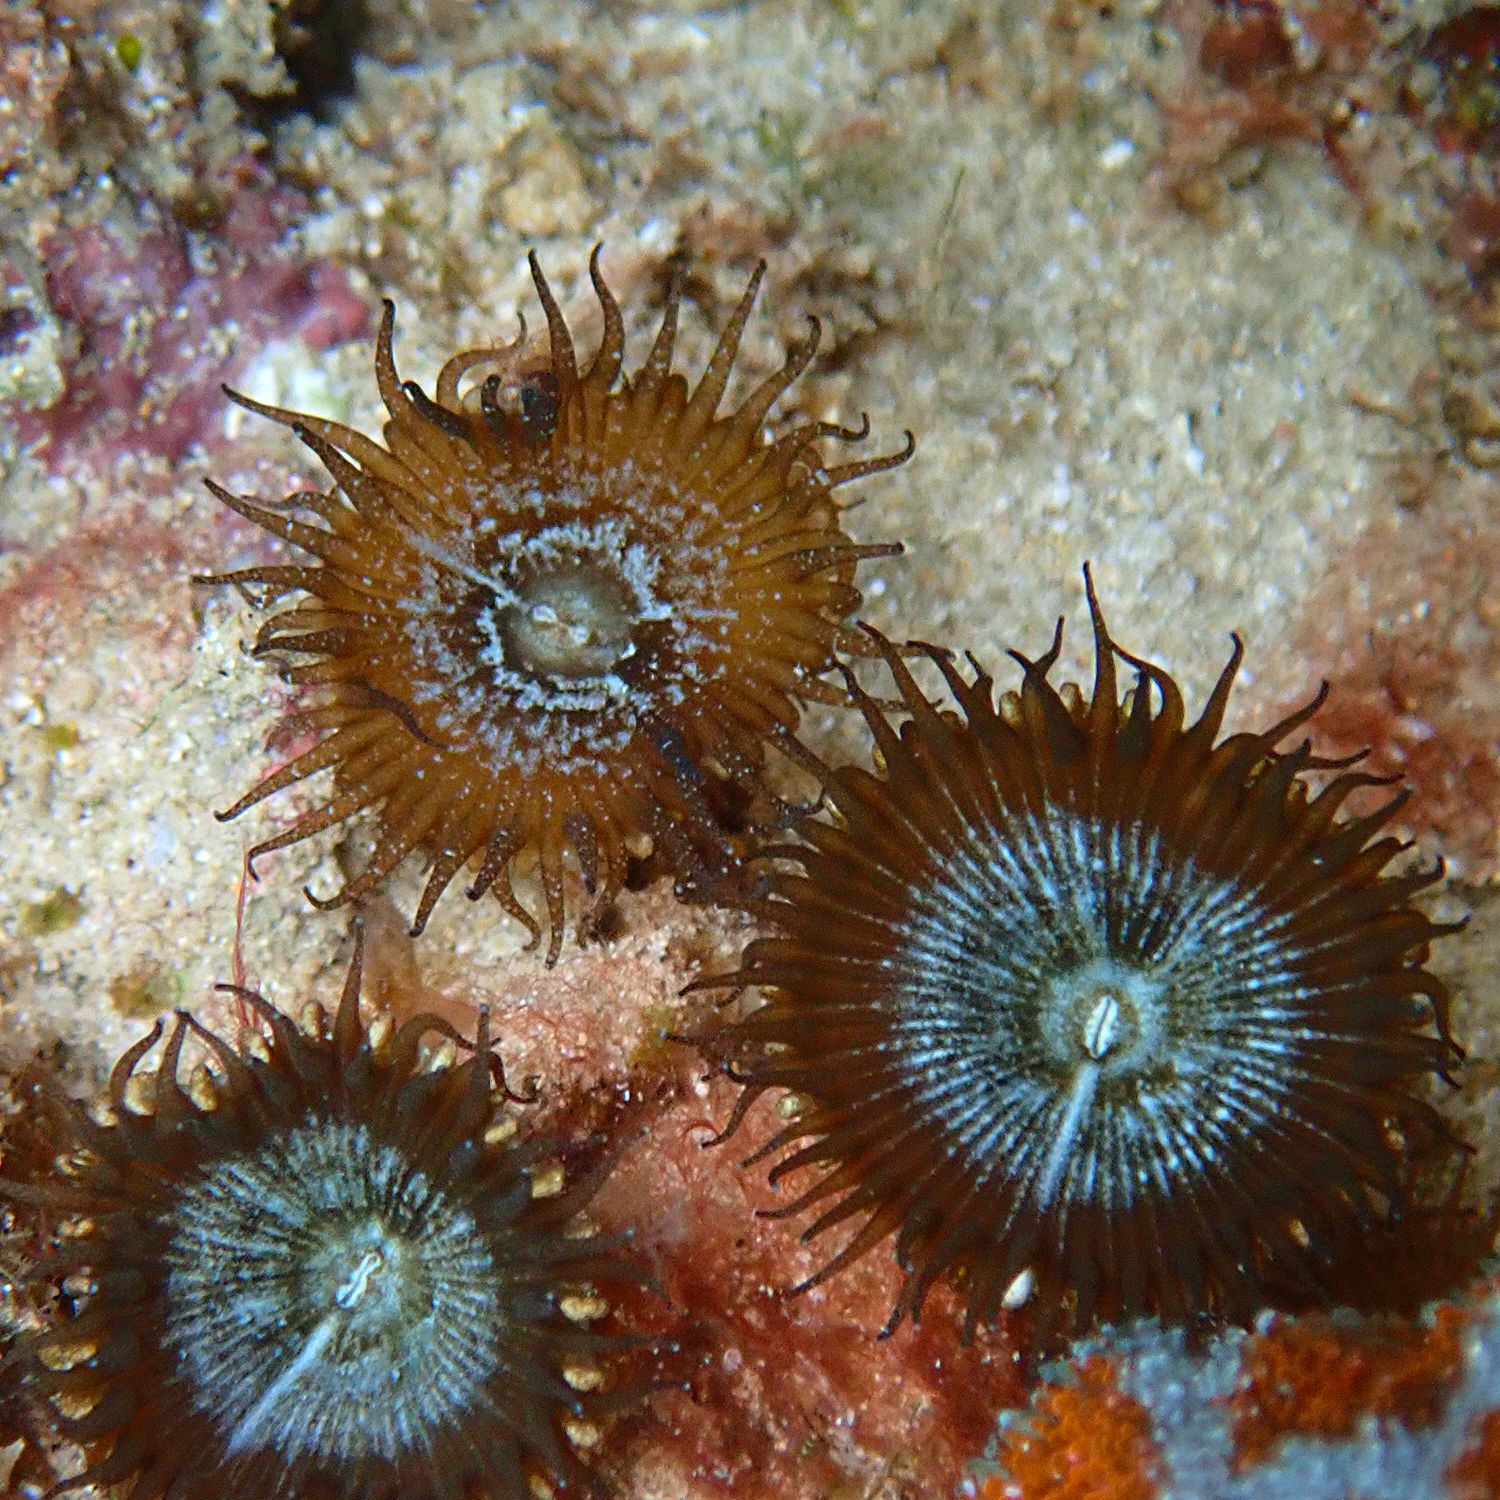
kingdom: Animalia
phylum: Cnidaria
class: Anthozoa
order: Zoantharia
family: Sphenopidae
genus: Palythoa
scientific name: Palythoa mutuki
